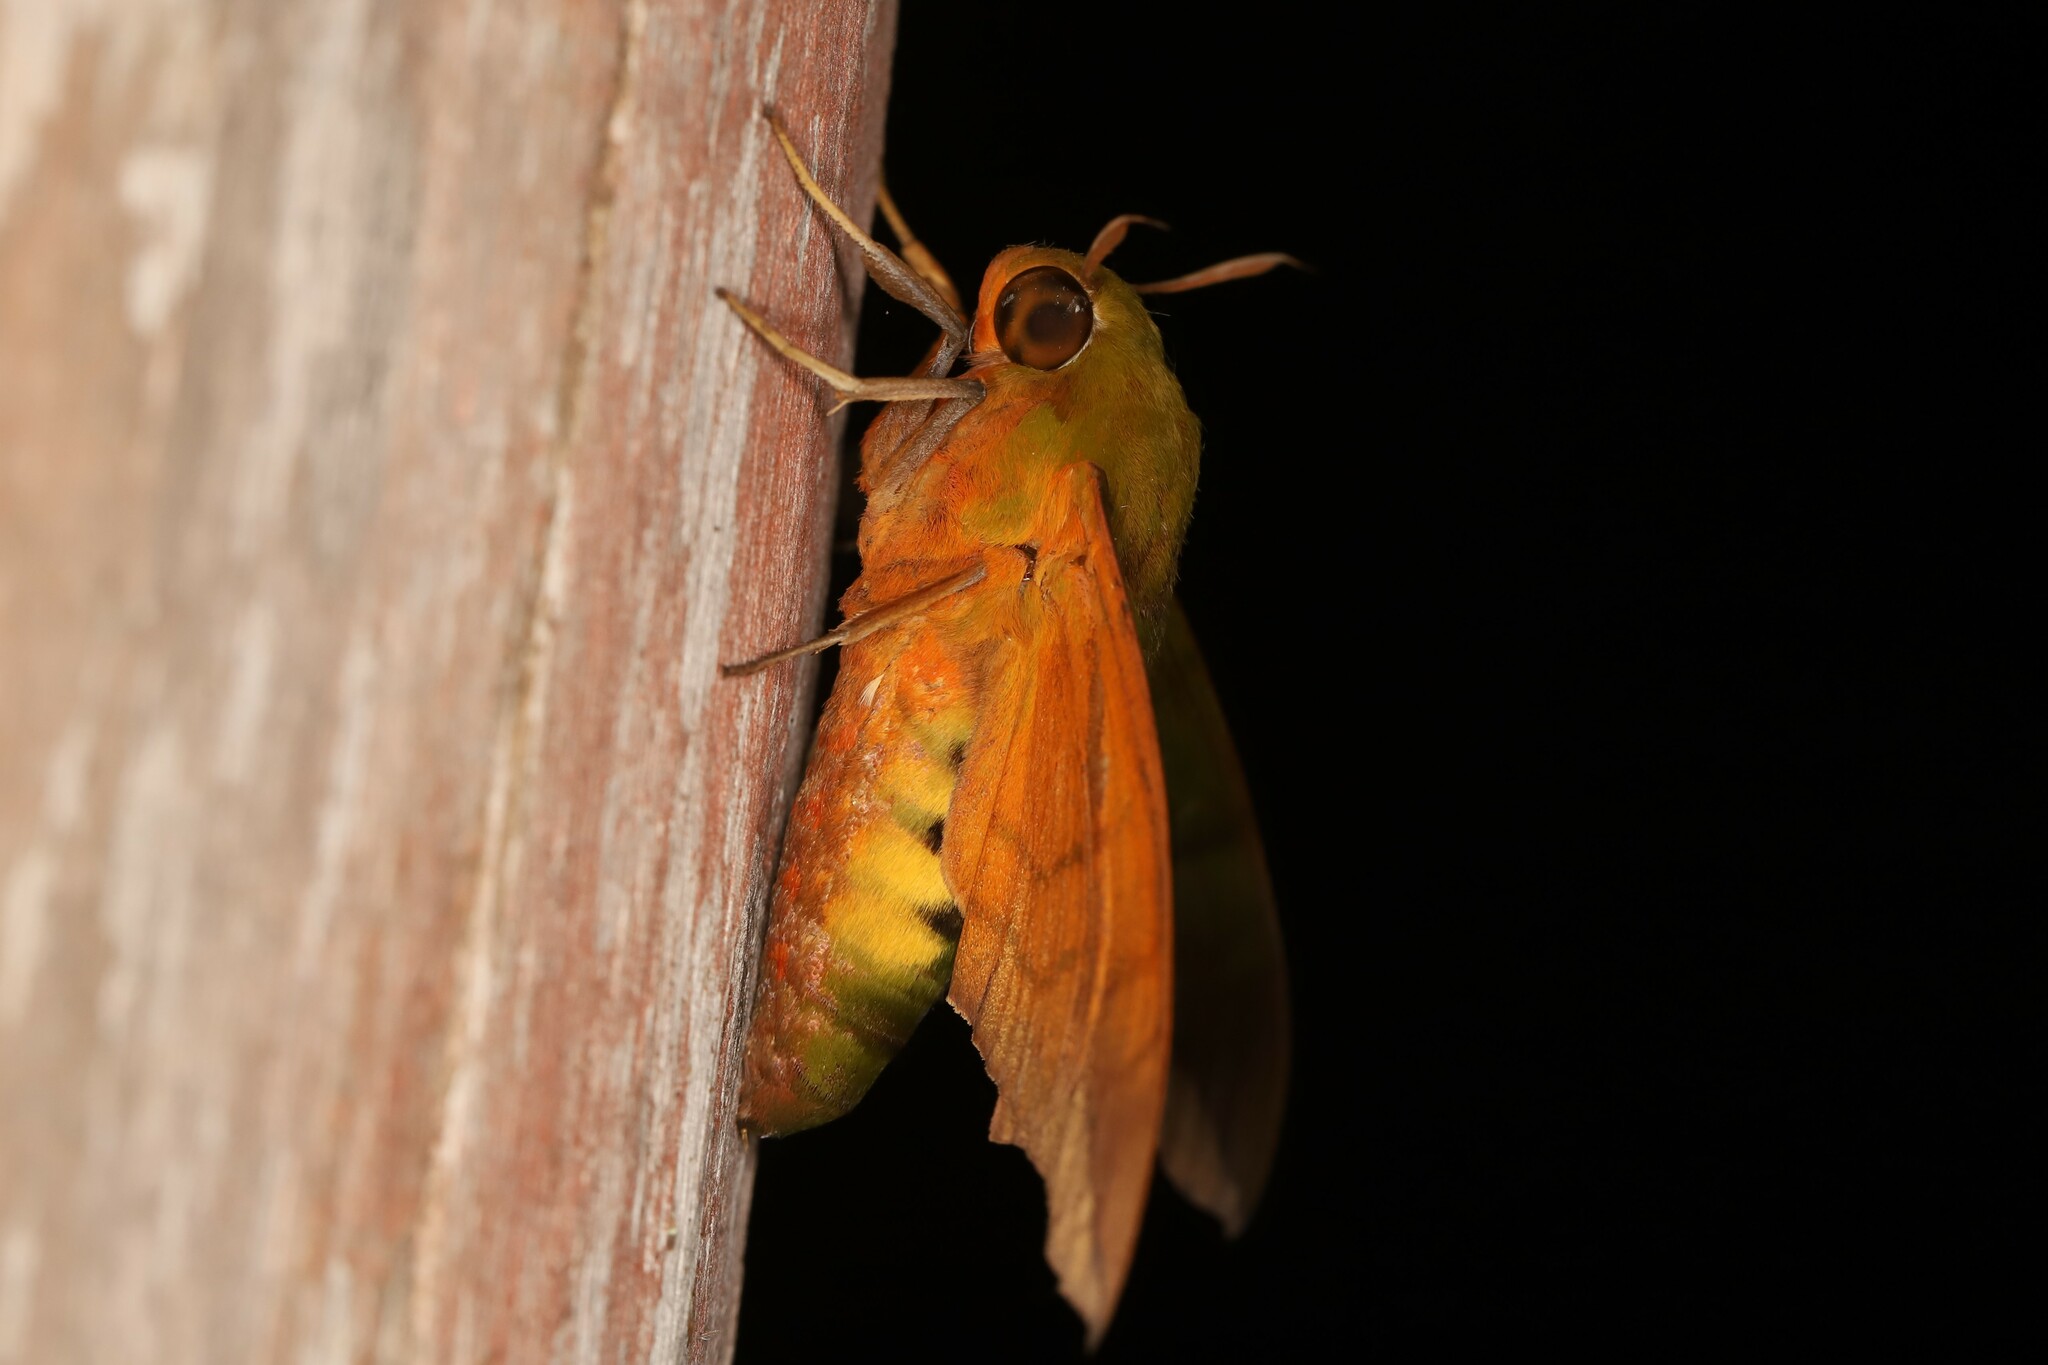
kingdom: Animalia
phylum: Arthropoda
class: Insecta
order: Lepidoptera
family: Sphingidae
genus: Oryba
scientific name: Oryba achemenides
